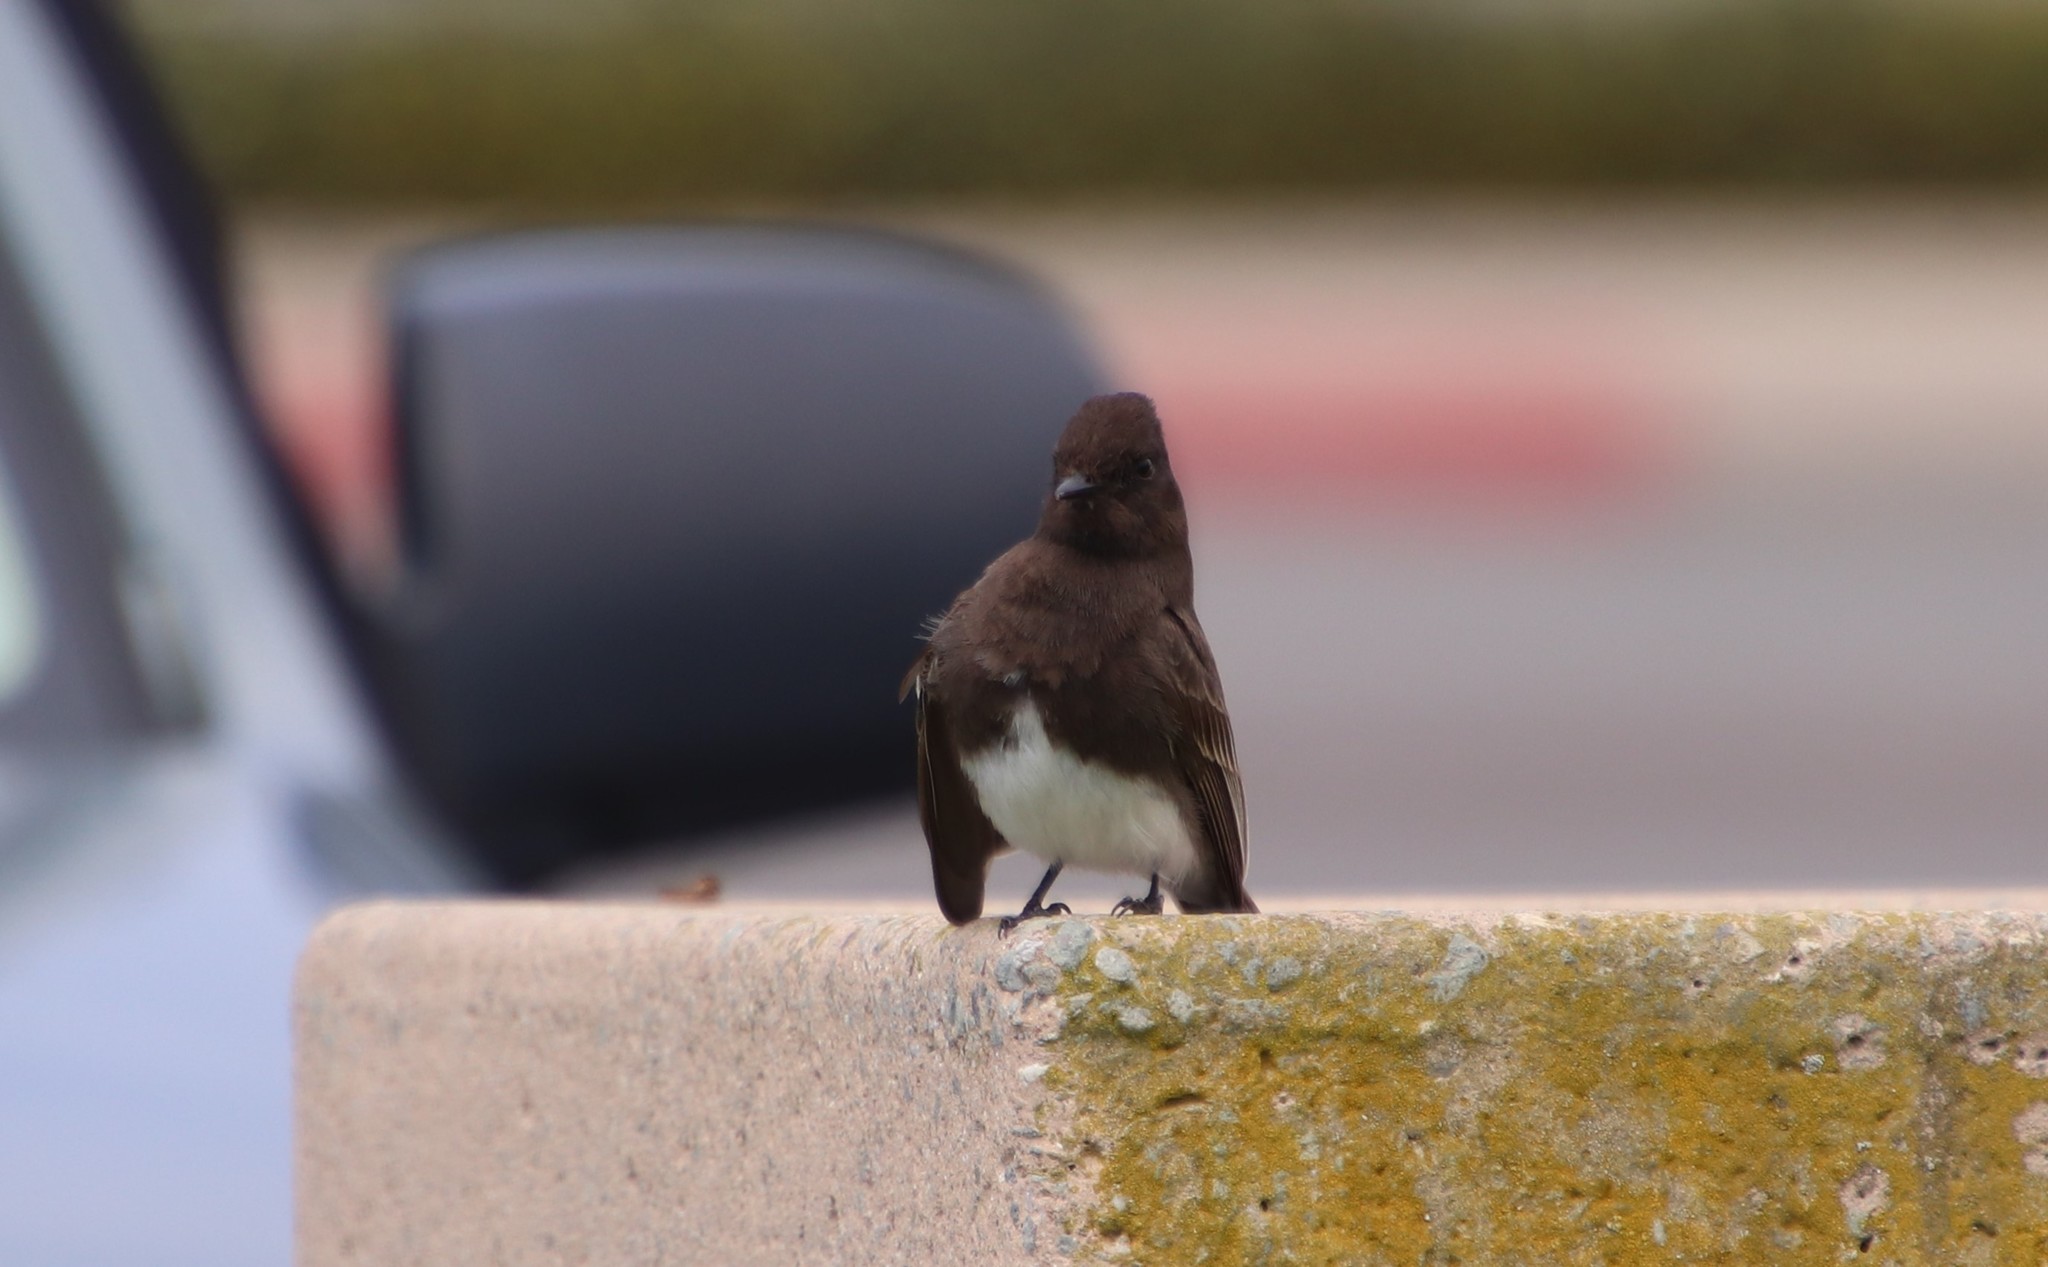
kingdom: Animalia
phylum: Chordata
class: Aves
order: Passeriformes
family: Tyrannidae
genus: Sayornis
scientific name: Sayornis nigricans
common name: Black phoebe
